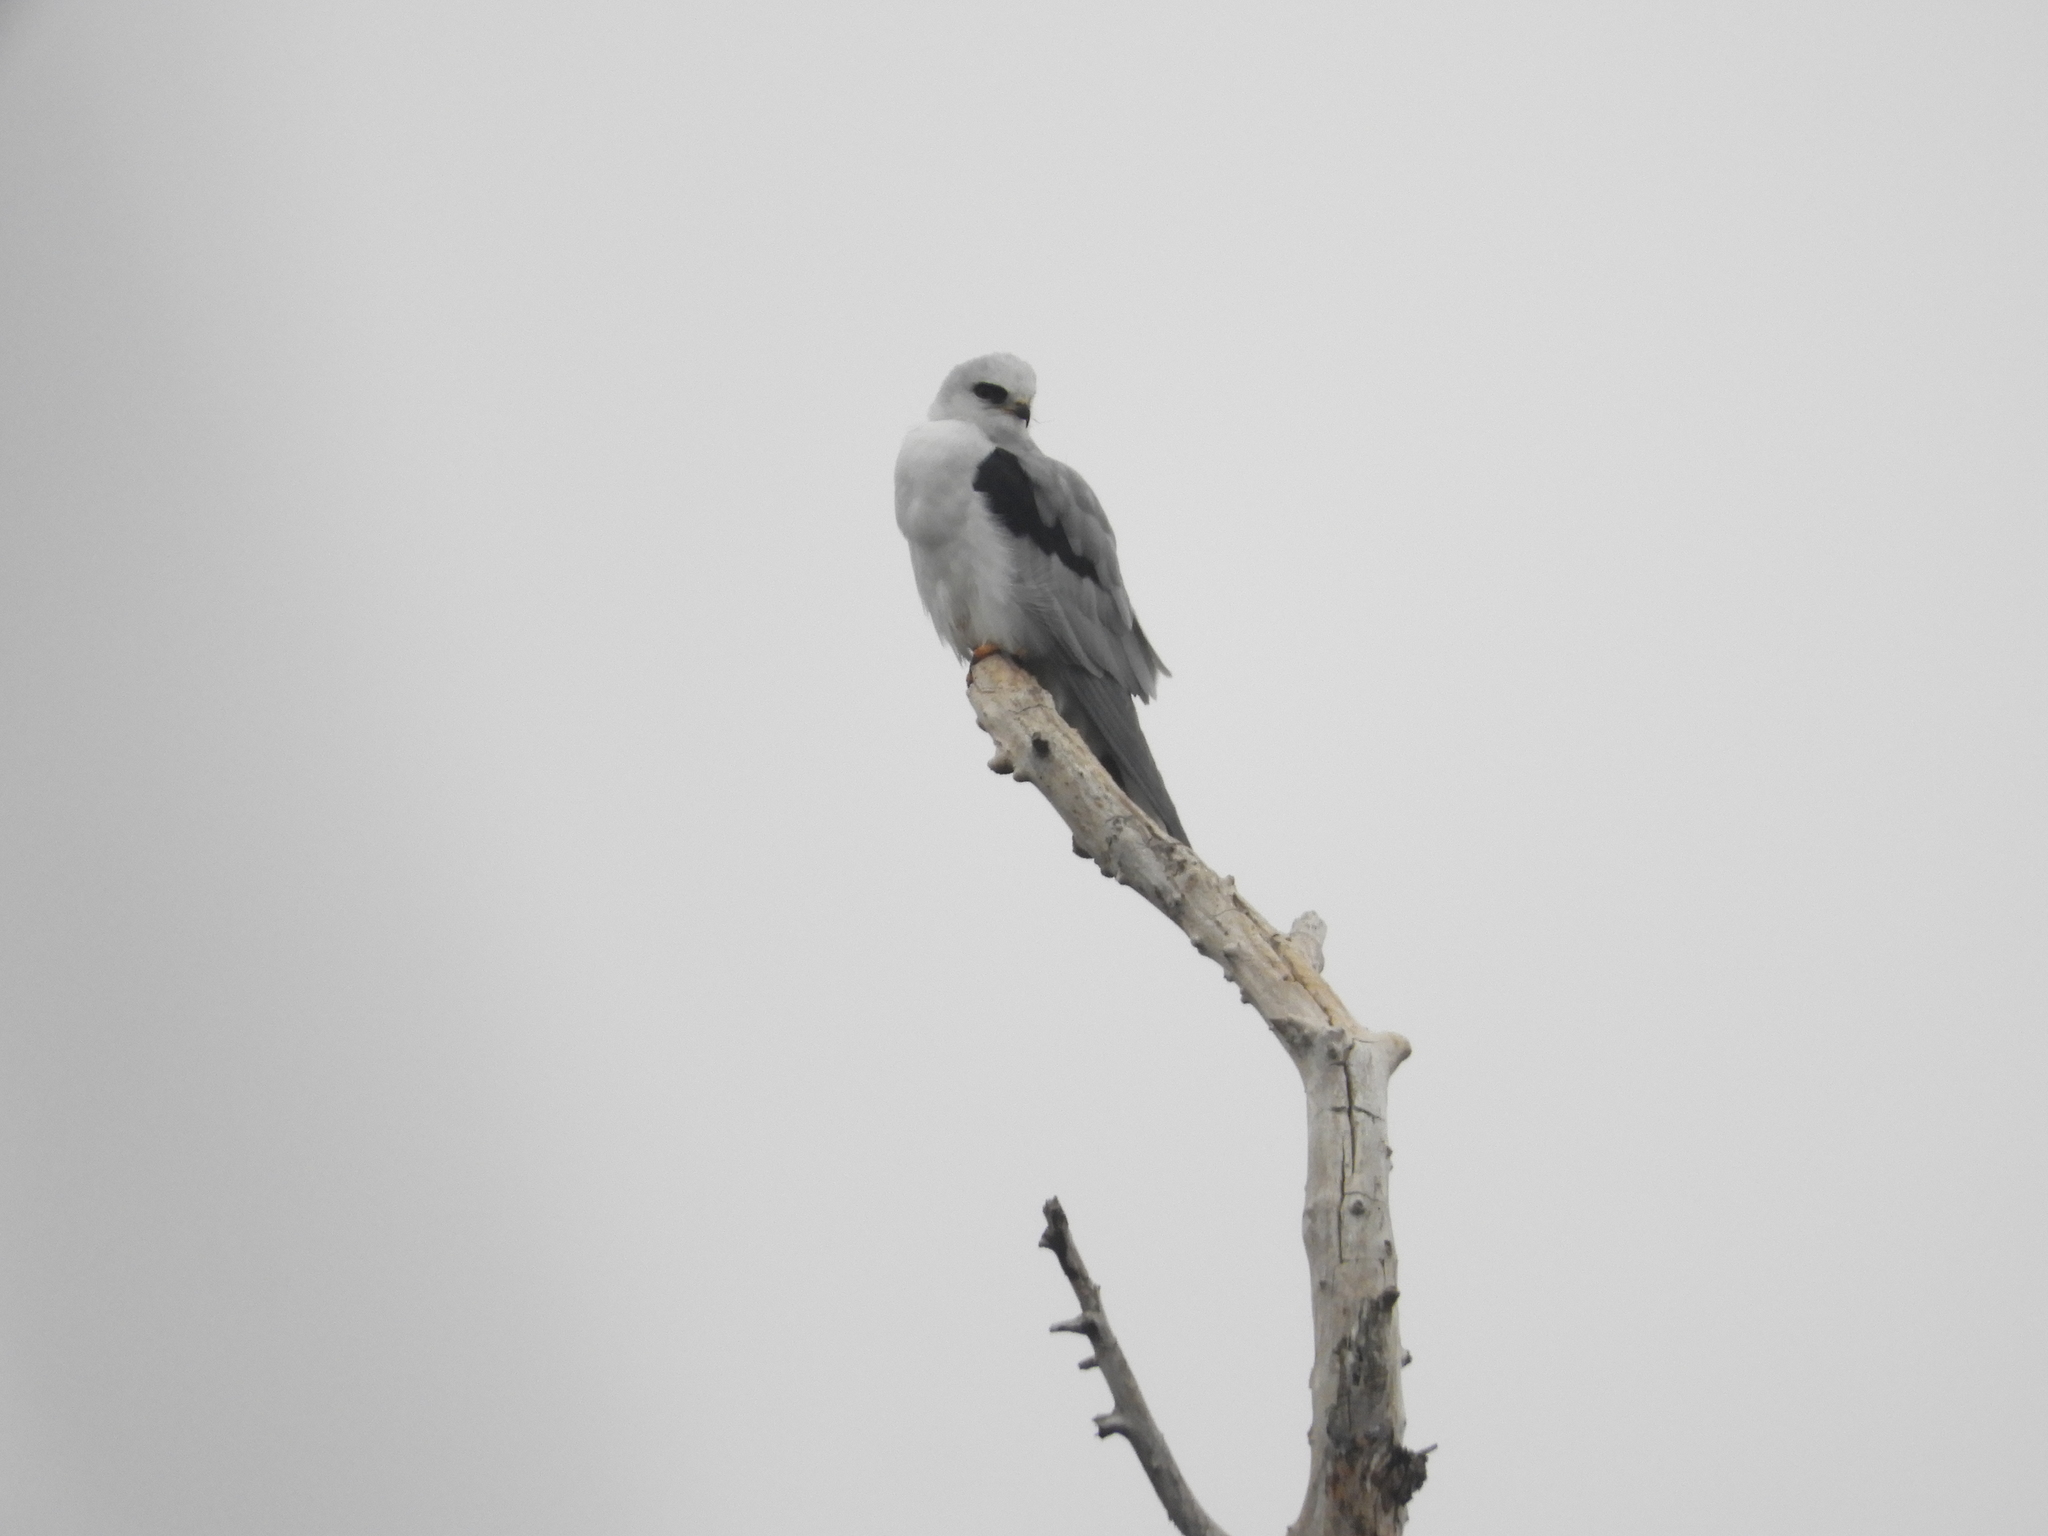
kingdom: Animalia
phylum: Chordata
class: Aves
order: Accipitriformes
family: Accipitridae
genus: Elanus
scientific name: Elanus leucurus
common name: White-tailed kite
